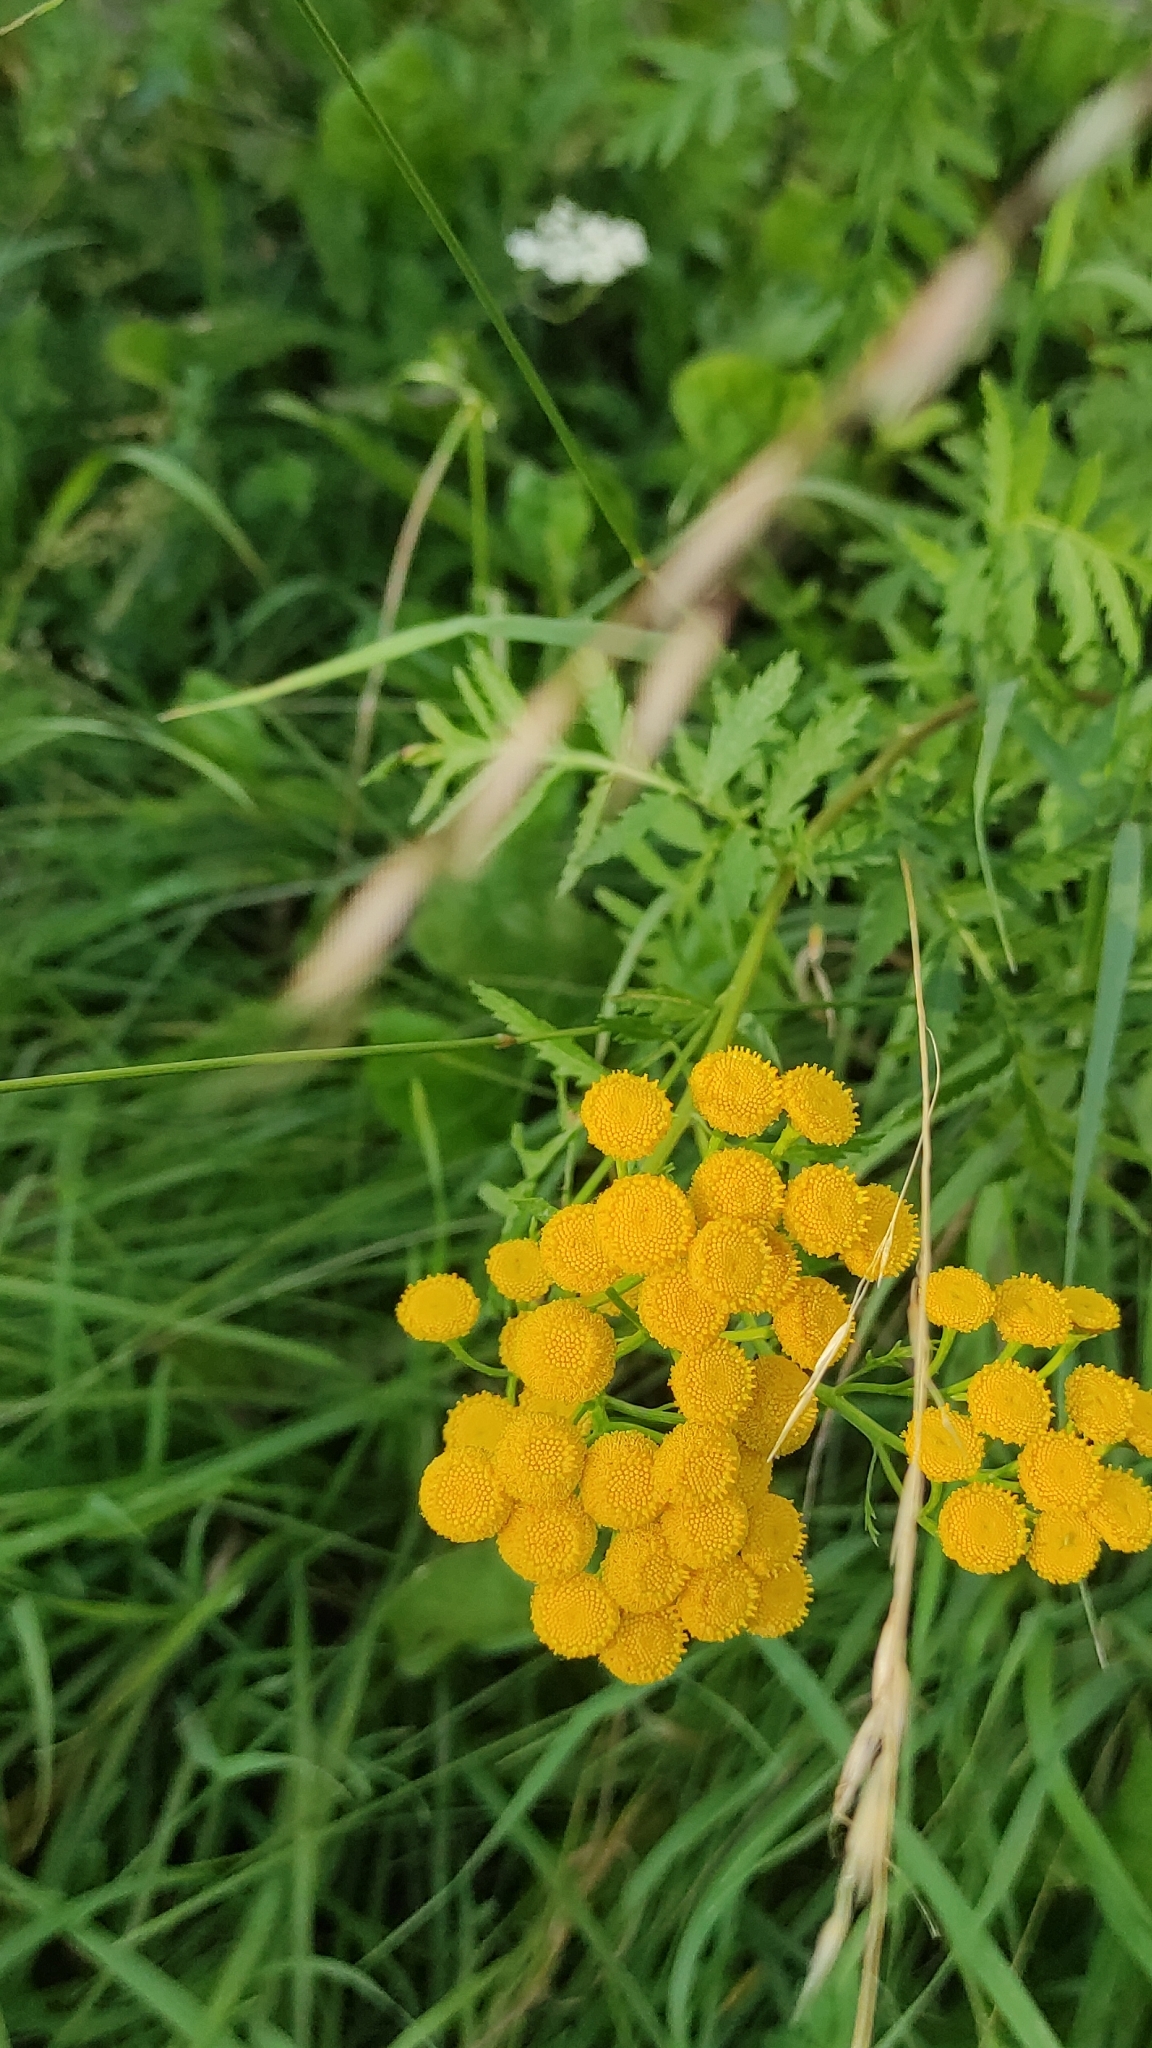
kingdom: Plantae
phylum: Tracheophyta
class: Magnoliopsida
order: Asterales
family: Asteraceae
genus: Tanacetum
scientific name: Tanacetum vulgare
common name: Common tansy
